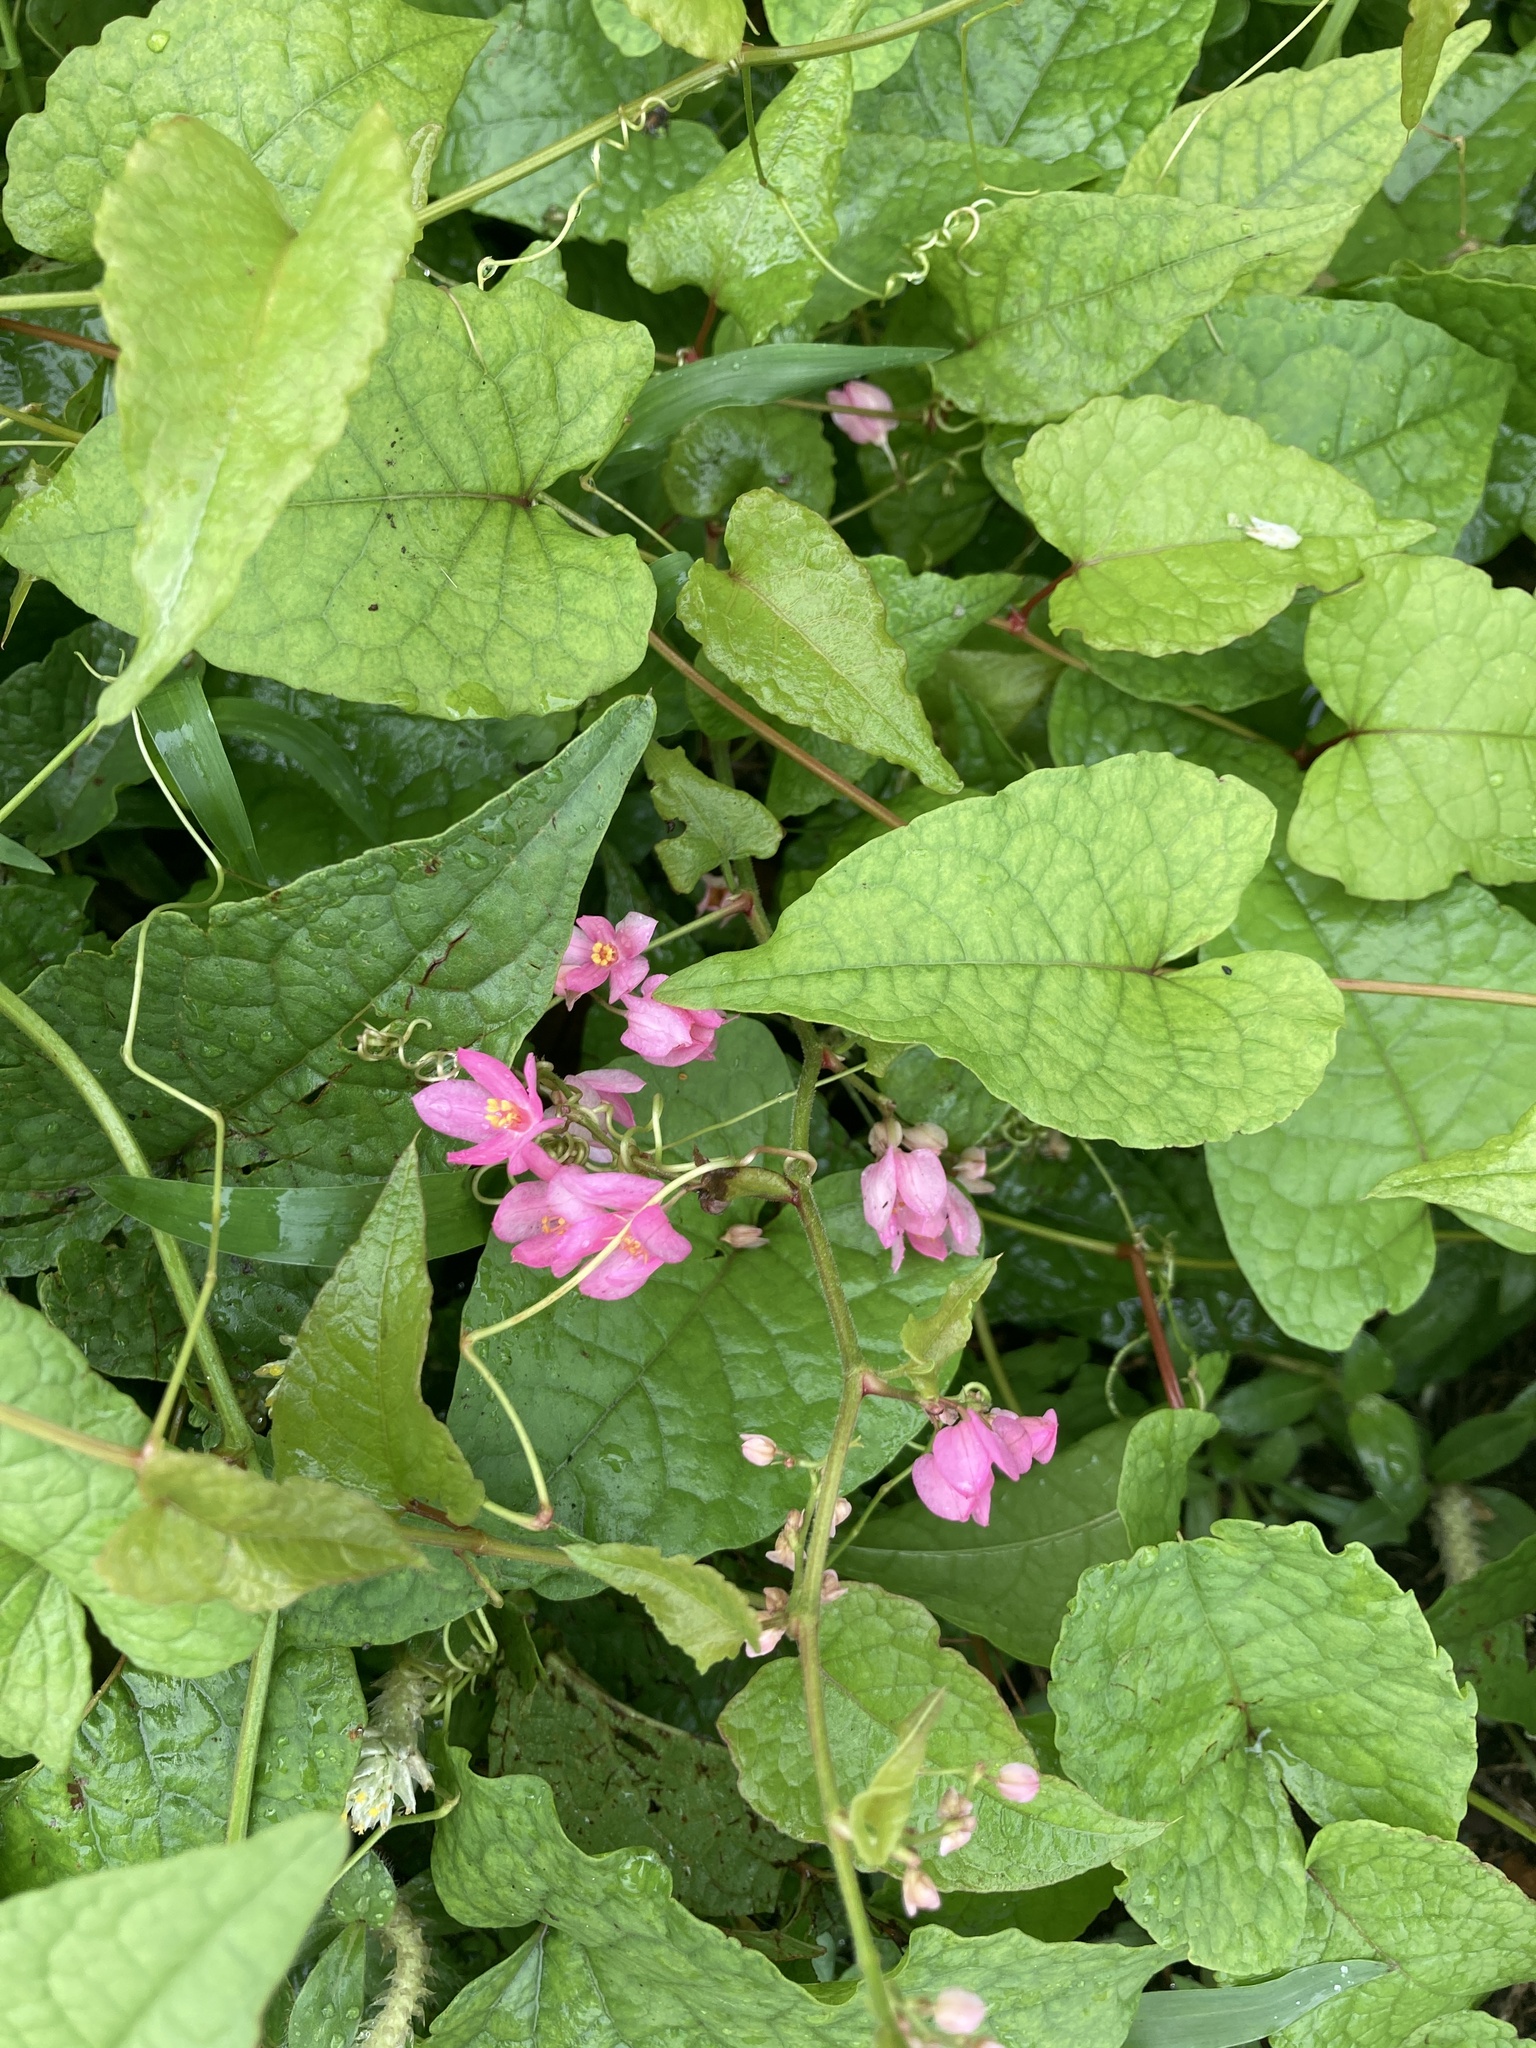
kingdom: Plantae
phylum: Tracheophyta
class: Magnoliopsida
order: Caryophyllales
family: Polygonaceae
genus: Antigonon
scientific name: Antigonon leptopus
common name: Coral vine
